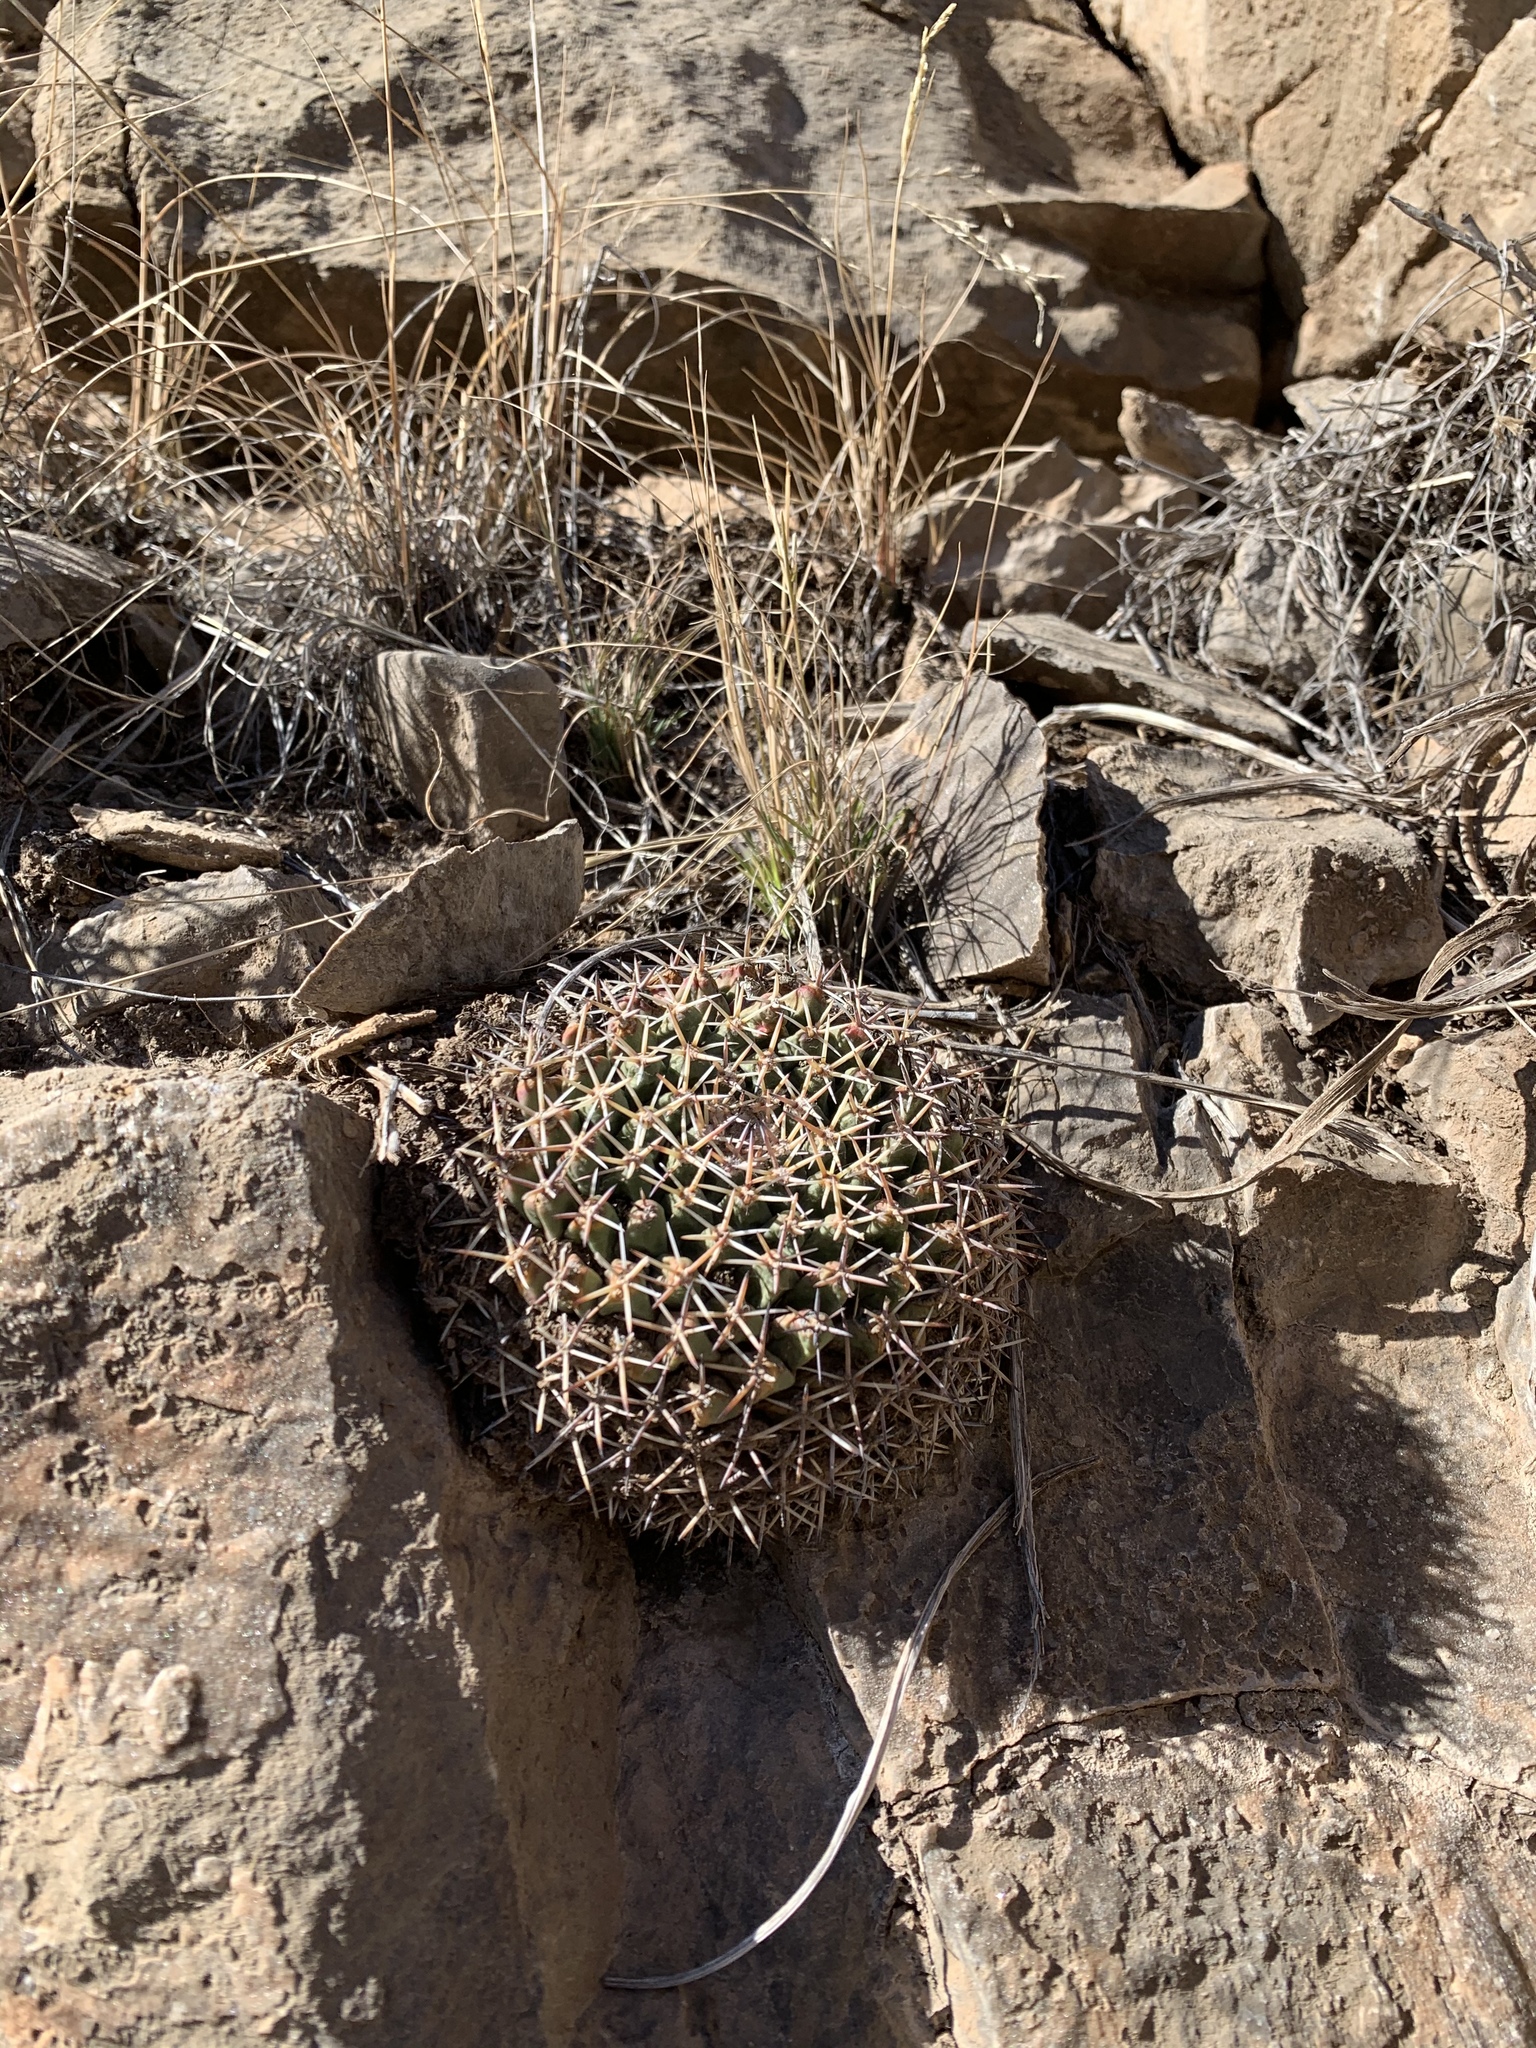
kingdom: Plantae
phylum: Tracheophyta
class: Magnoliopsida
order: Caryophyllales
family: Cactaceae
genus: Mammillaria
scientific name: Mammillaria heyderi
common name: Little nipple cactus
